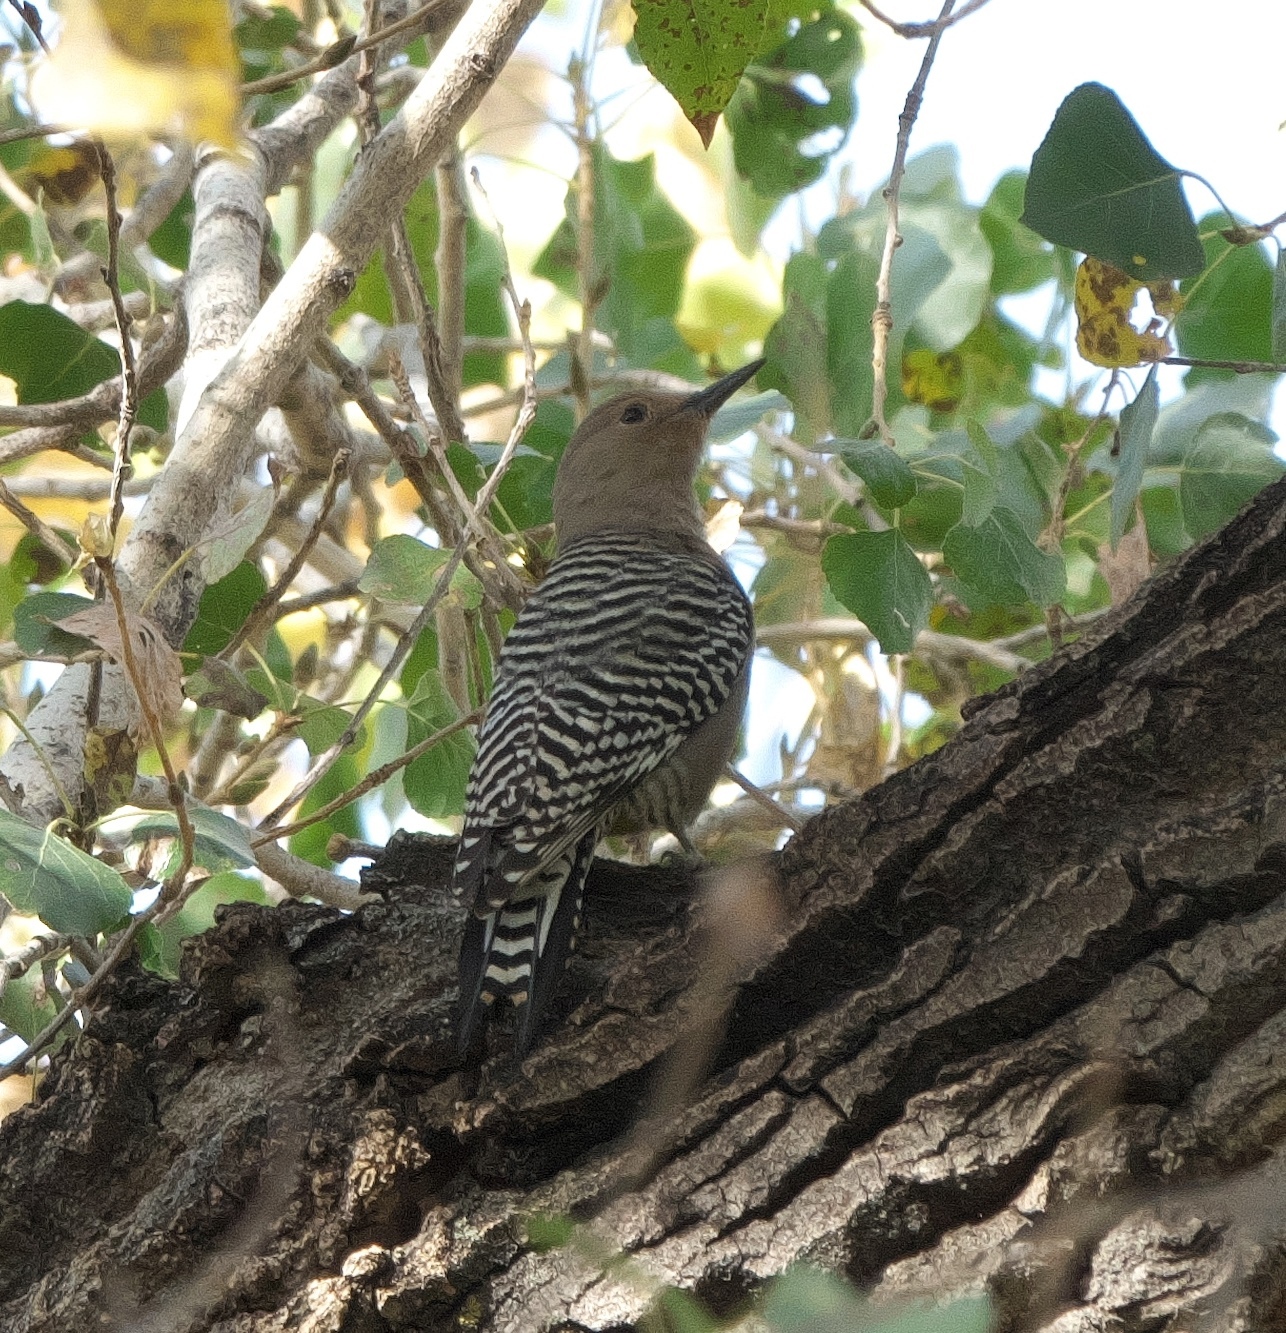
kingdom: Animalia
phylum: Chordata
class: Aves
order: Piciformes
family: Picidae
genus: Melanerpes
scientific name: Melanerpes uropygialis
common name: Gila woodpecker
